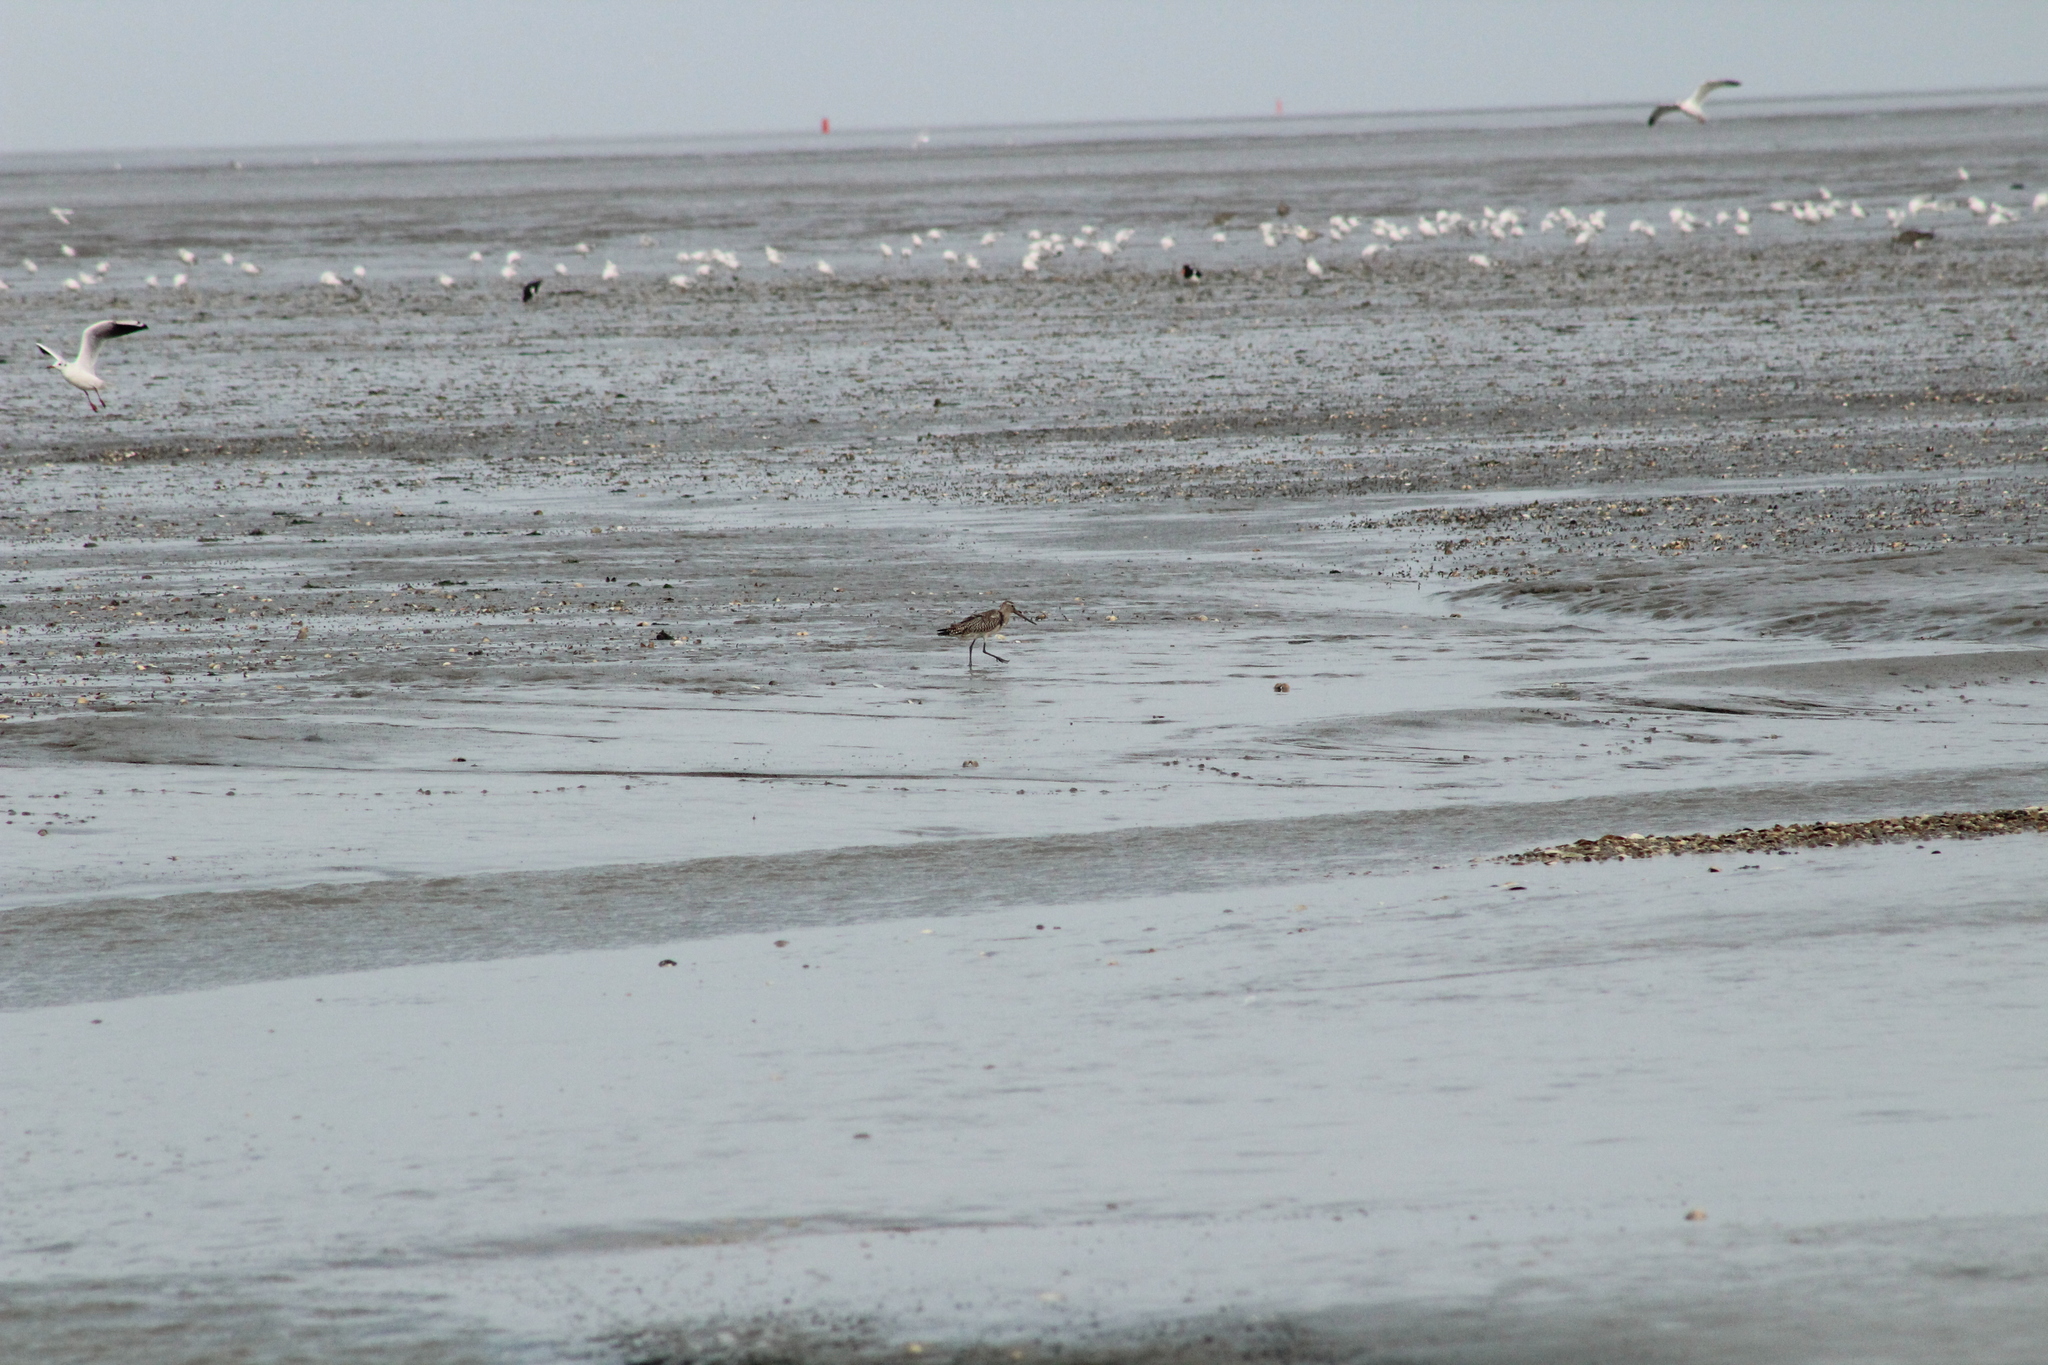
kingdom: Animalia
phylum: Chordata
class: Aves
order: Charadriiformes
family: Scolopacidae
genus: Limosa
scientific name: Limosa lapponica
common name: Bar-tailed godwit
